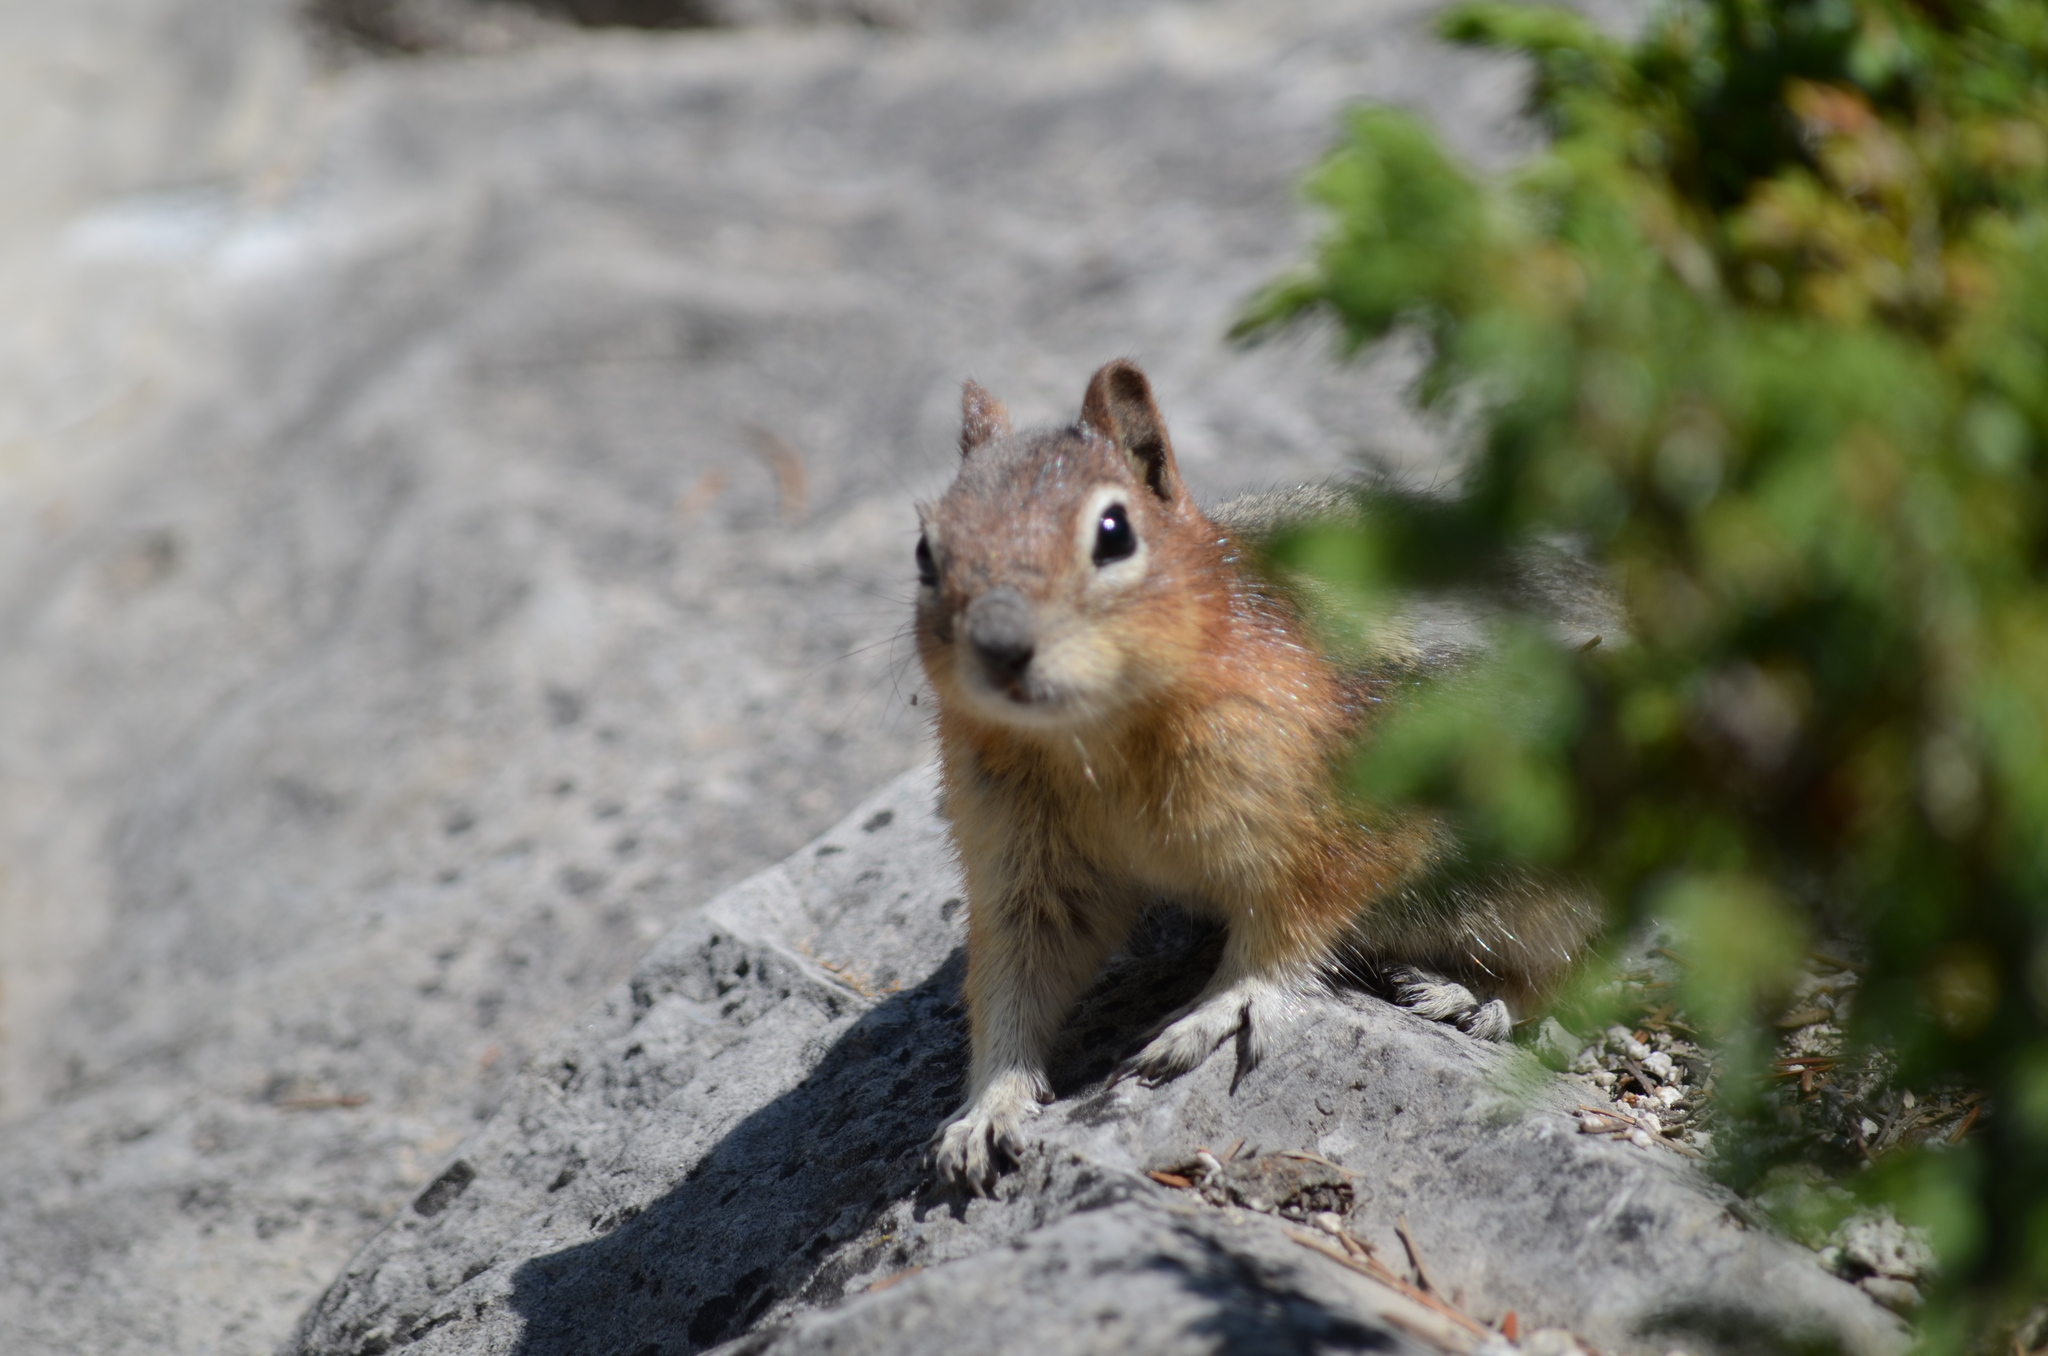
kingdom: Animalia
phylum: Chordata
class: Mammalia
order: Rodentia
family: Sciuridae
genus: Callospermophilus
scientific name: Callospermophilus lateralis
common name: Golden-mantled ground squirrel
